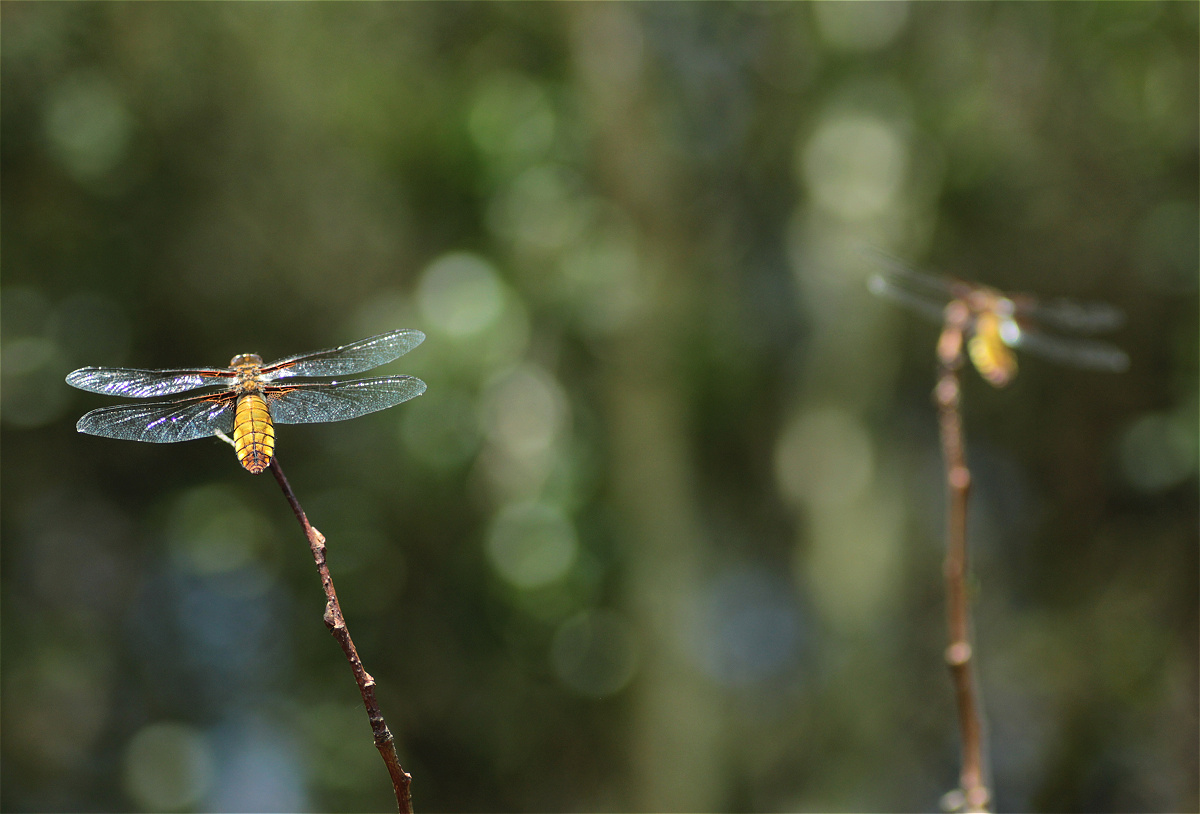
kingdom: Animalia
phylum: Arthropoda
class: Insecta
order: Odonata
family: Libellulidae
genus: Libellula
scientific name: Libellula depressa
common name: Broad-bodied chaser
